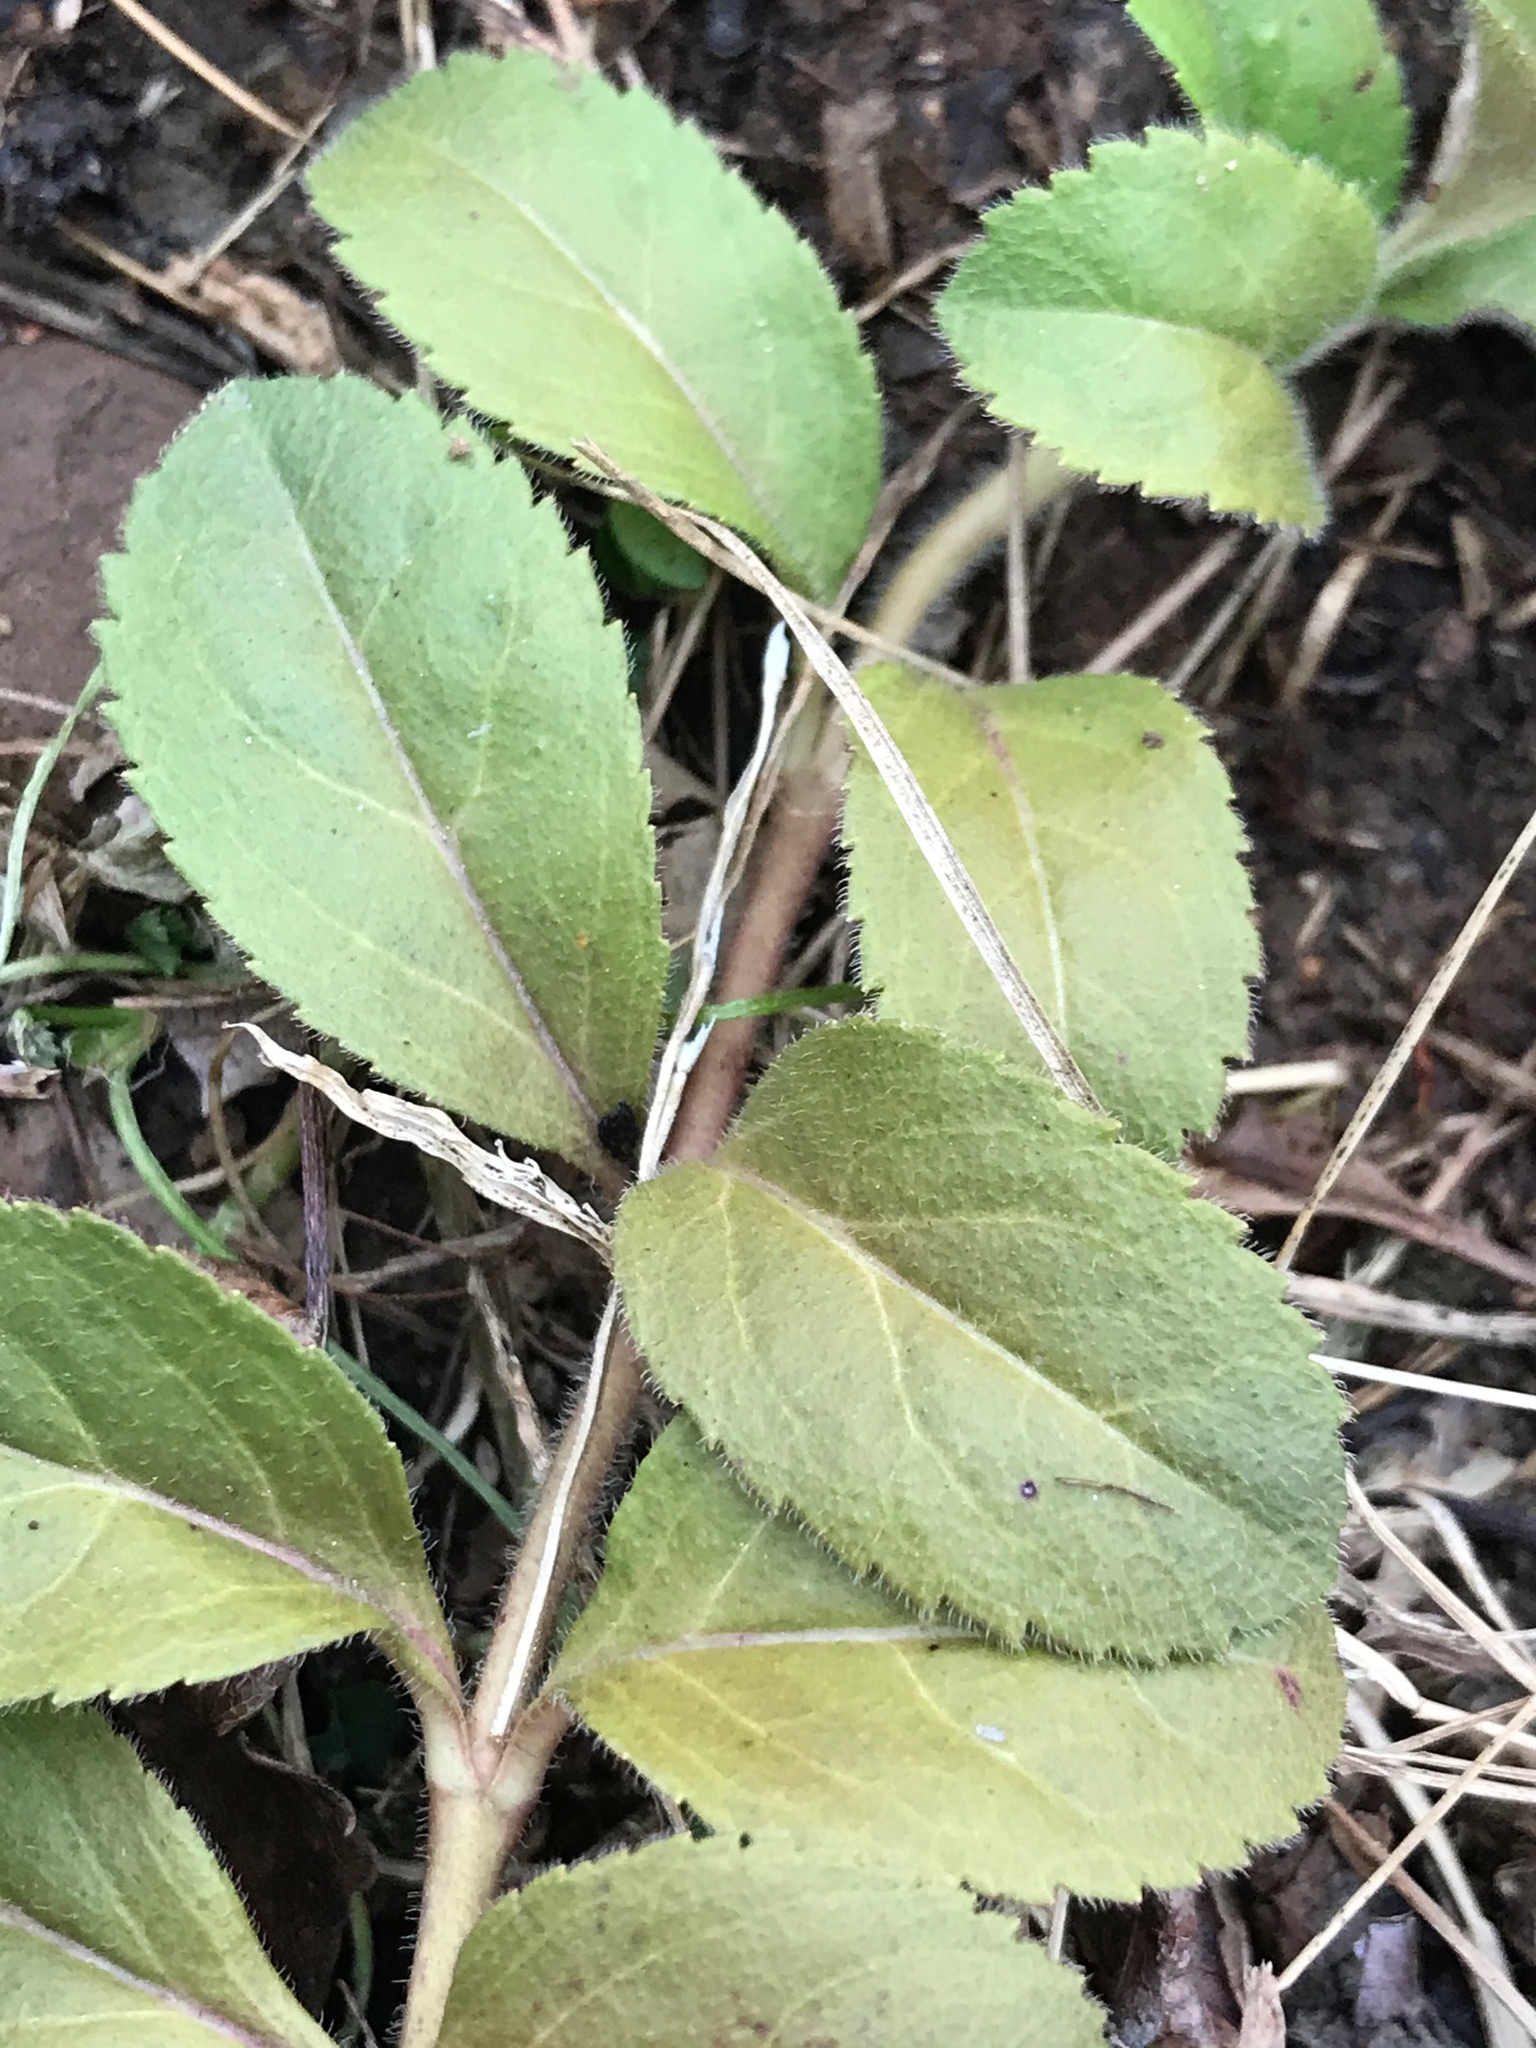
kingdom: Plantae
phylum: Tracheophyta
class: Magnoliopsida
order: Lamiales
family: Plantaginaceae
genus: Veronica
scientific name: Veronica officinalis
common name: Common speedwell
